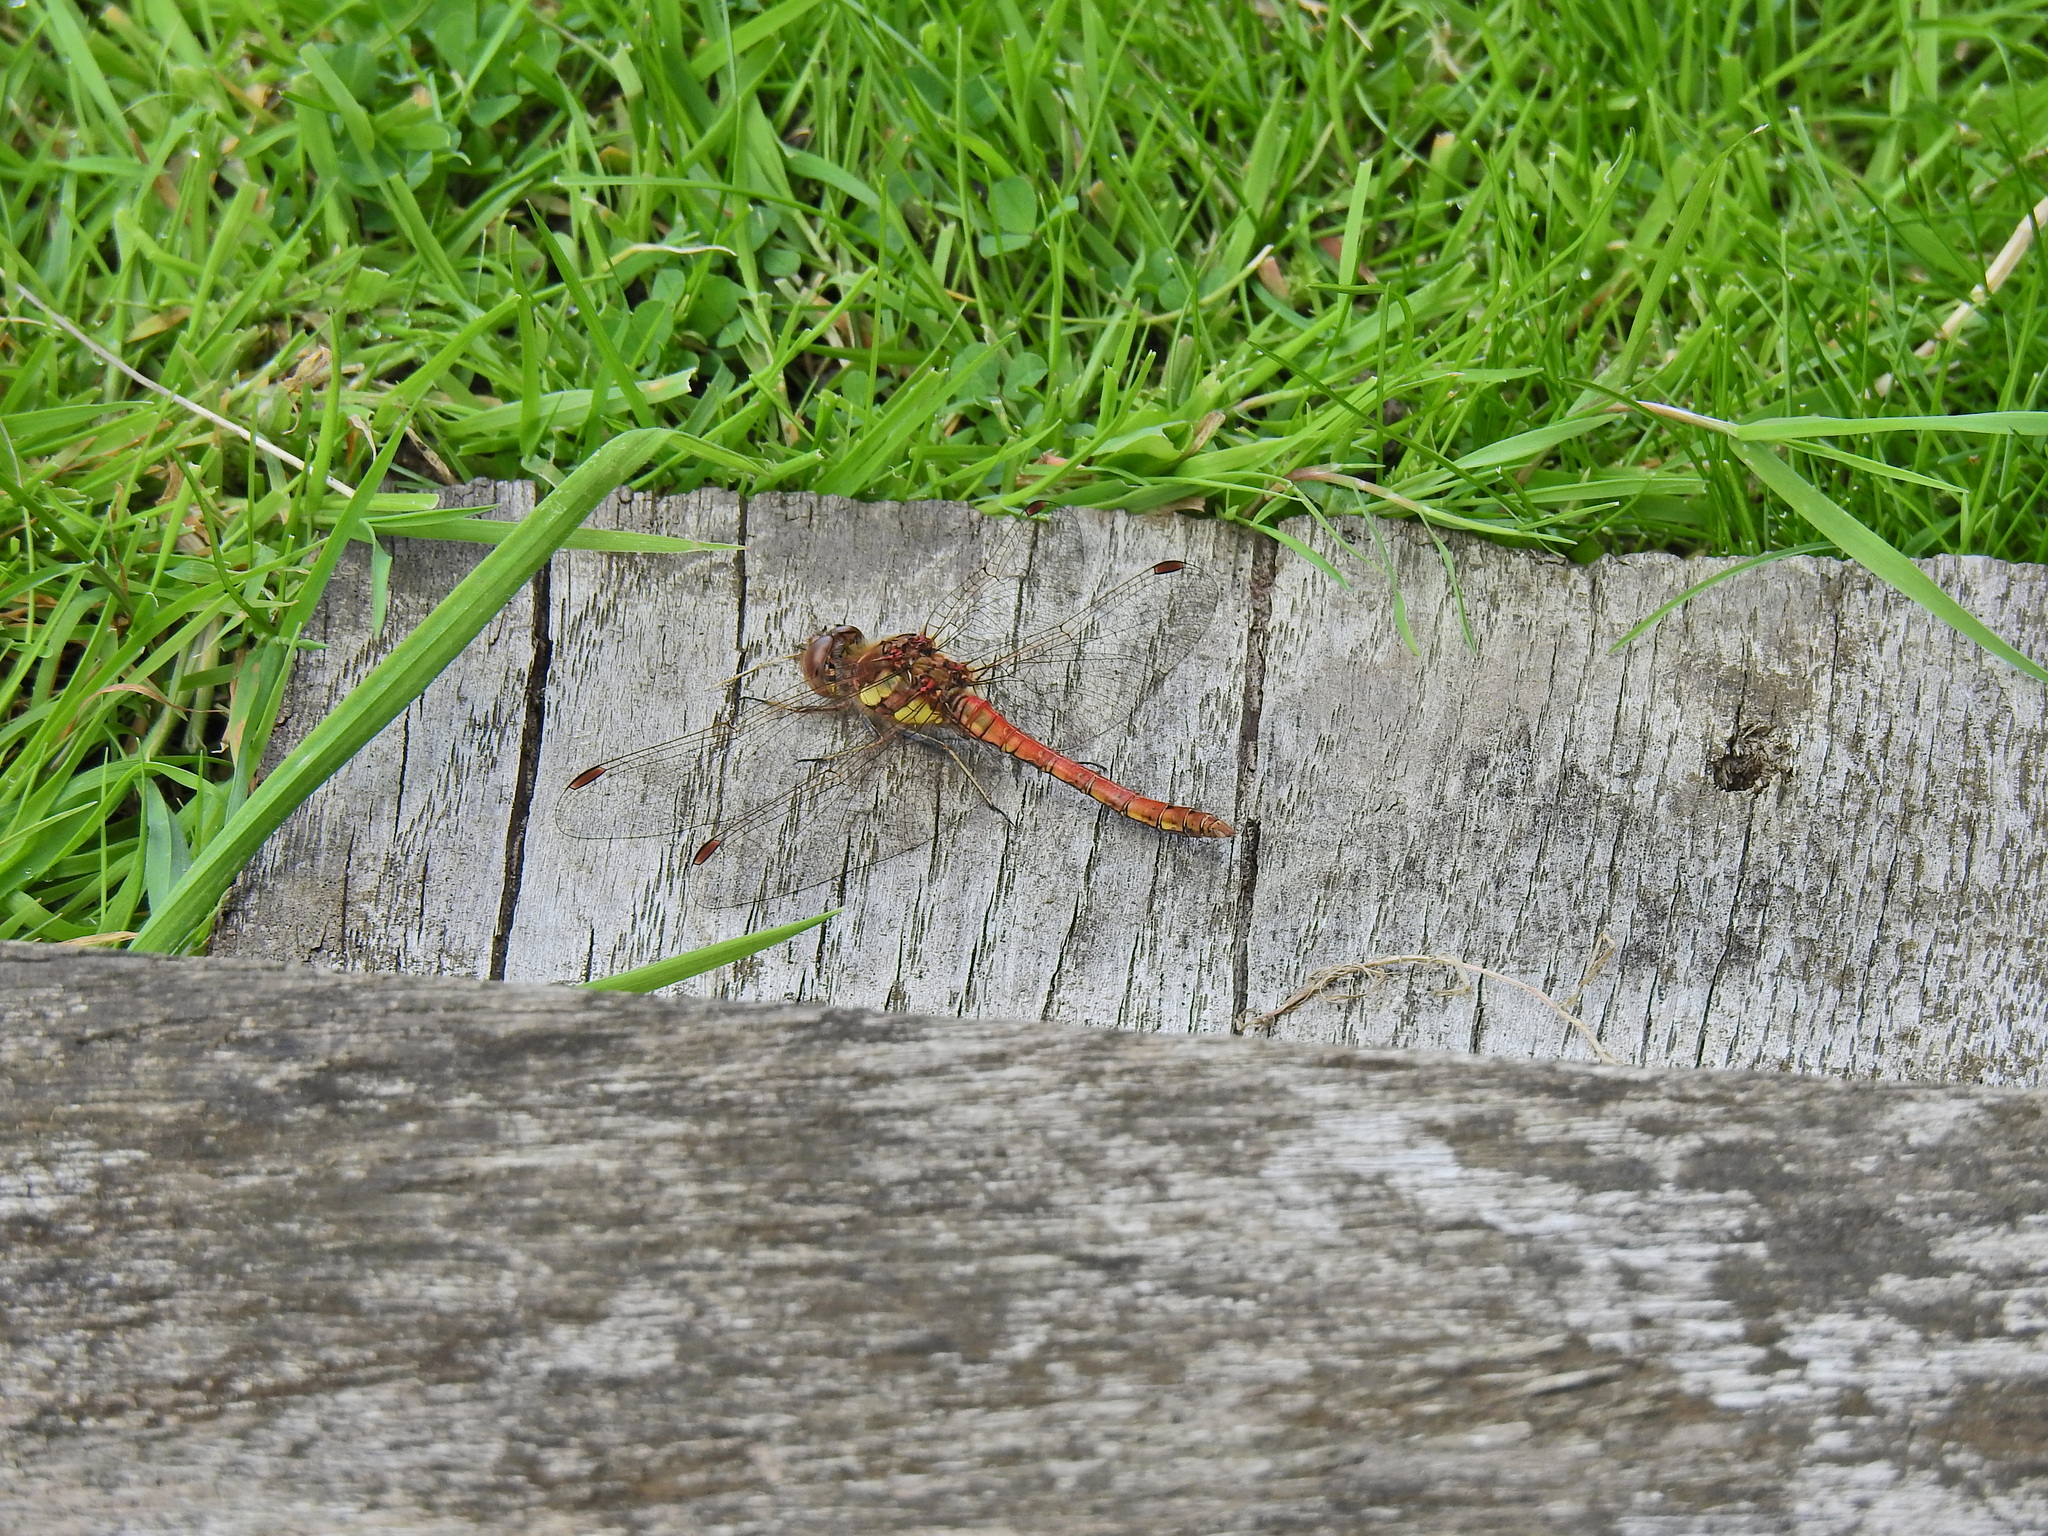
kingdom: Animalia
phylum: Arthropoda
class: Insecta
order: Odonata
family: Libellulidae
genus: Sympetrum
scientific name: Sympetrum striolatum
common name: Common darter
